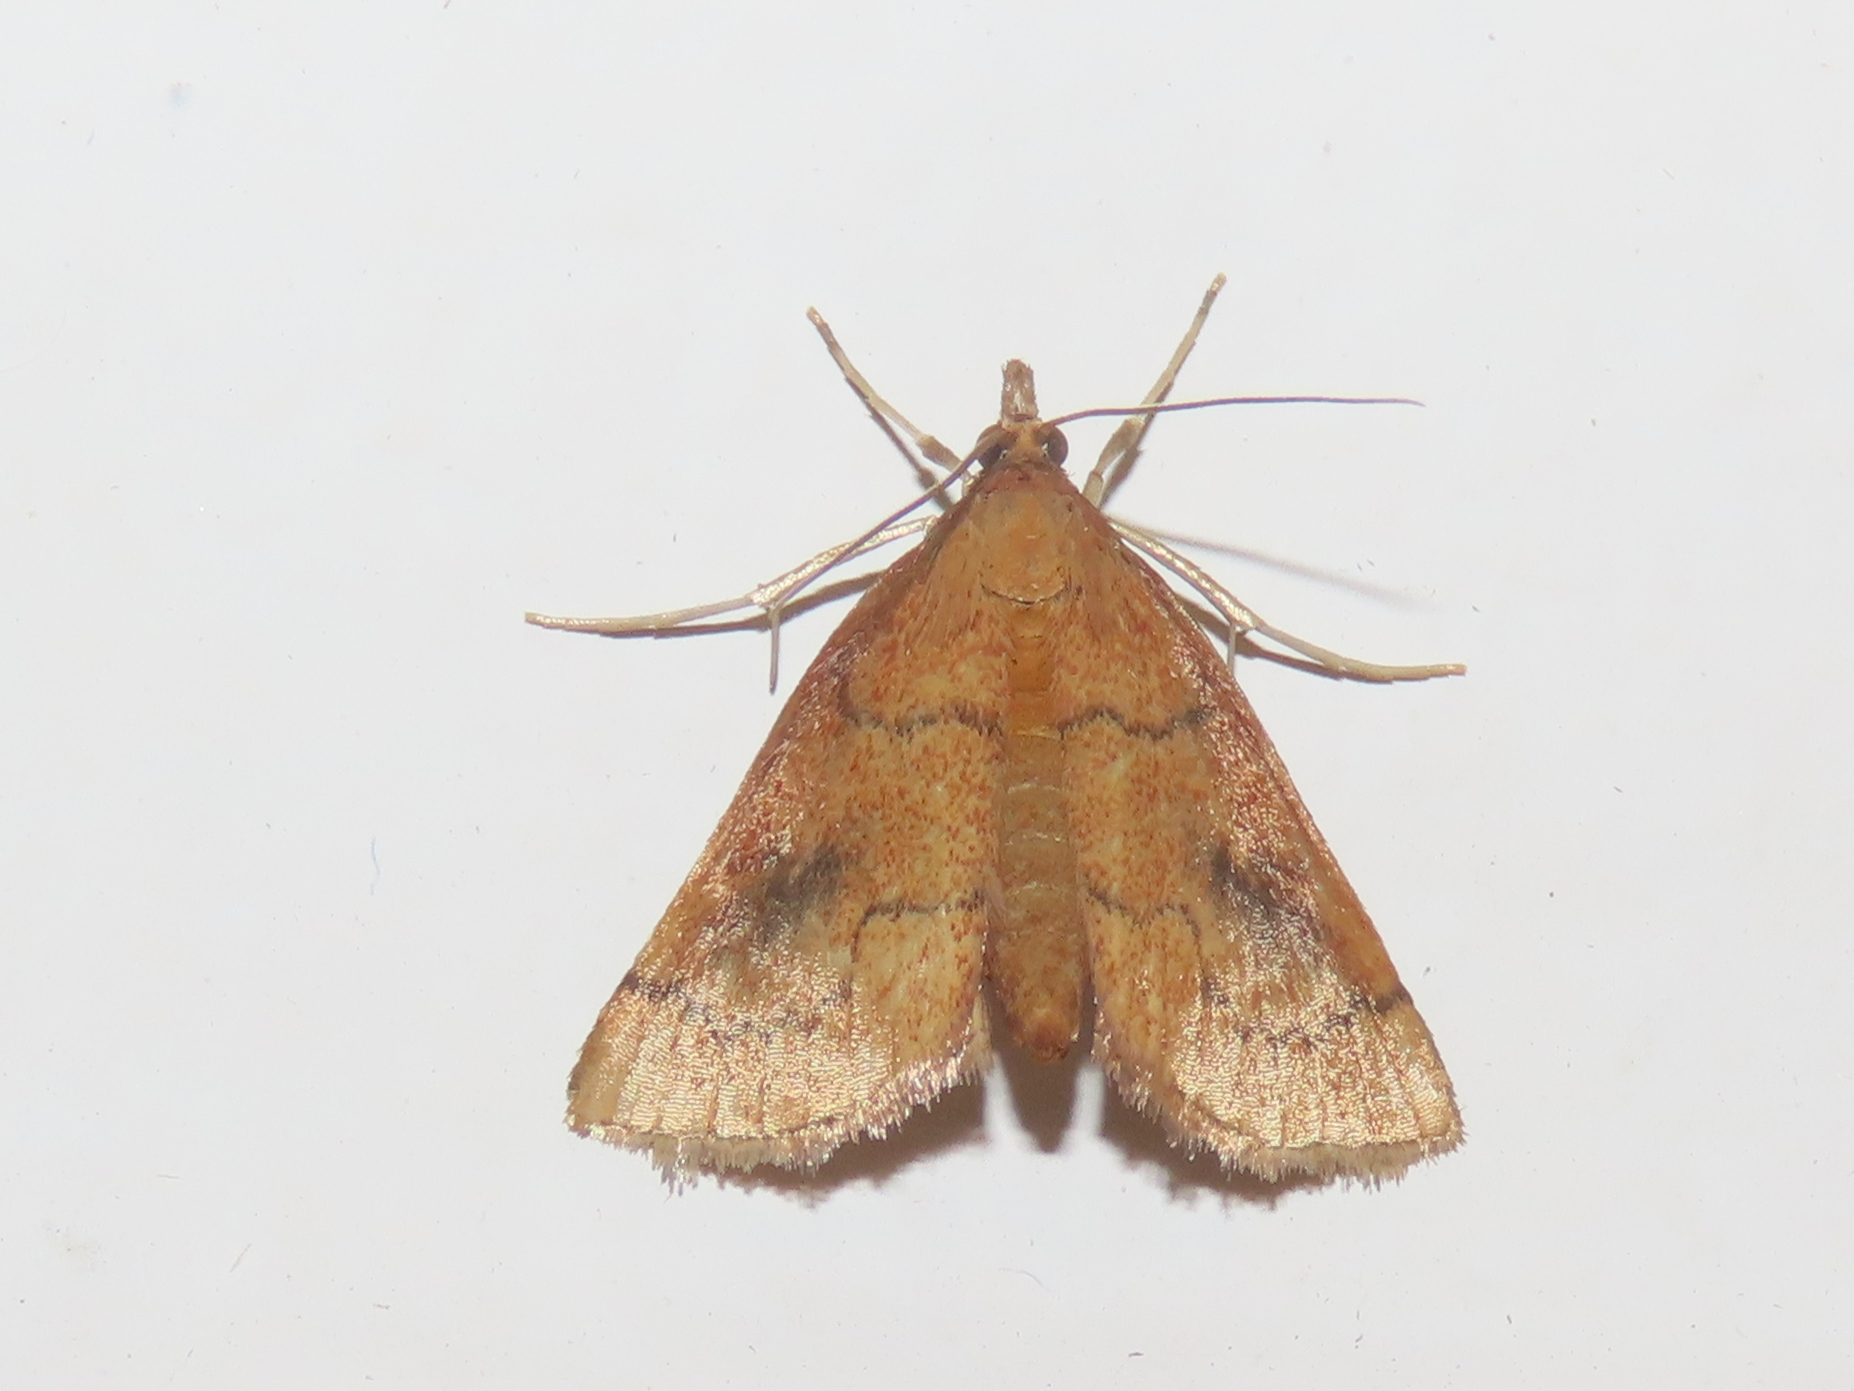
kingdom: Animalia
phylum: Arthropoda
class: Insecta
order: Lepidoptera
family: Crambidae
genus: Fumibotys
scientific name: Fumibotys fumalis
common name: Mint root borer moth
